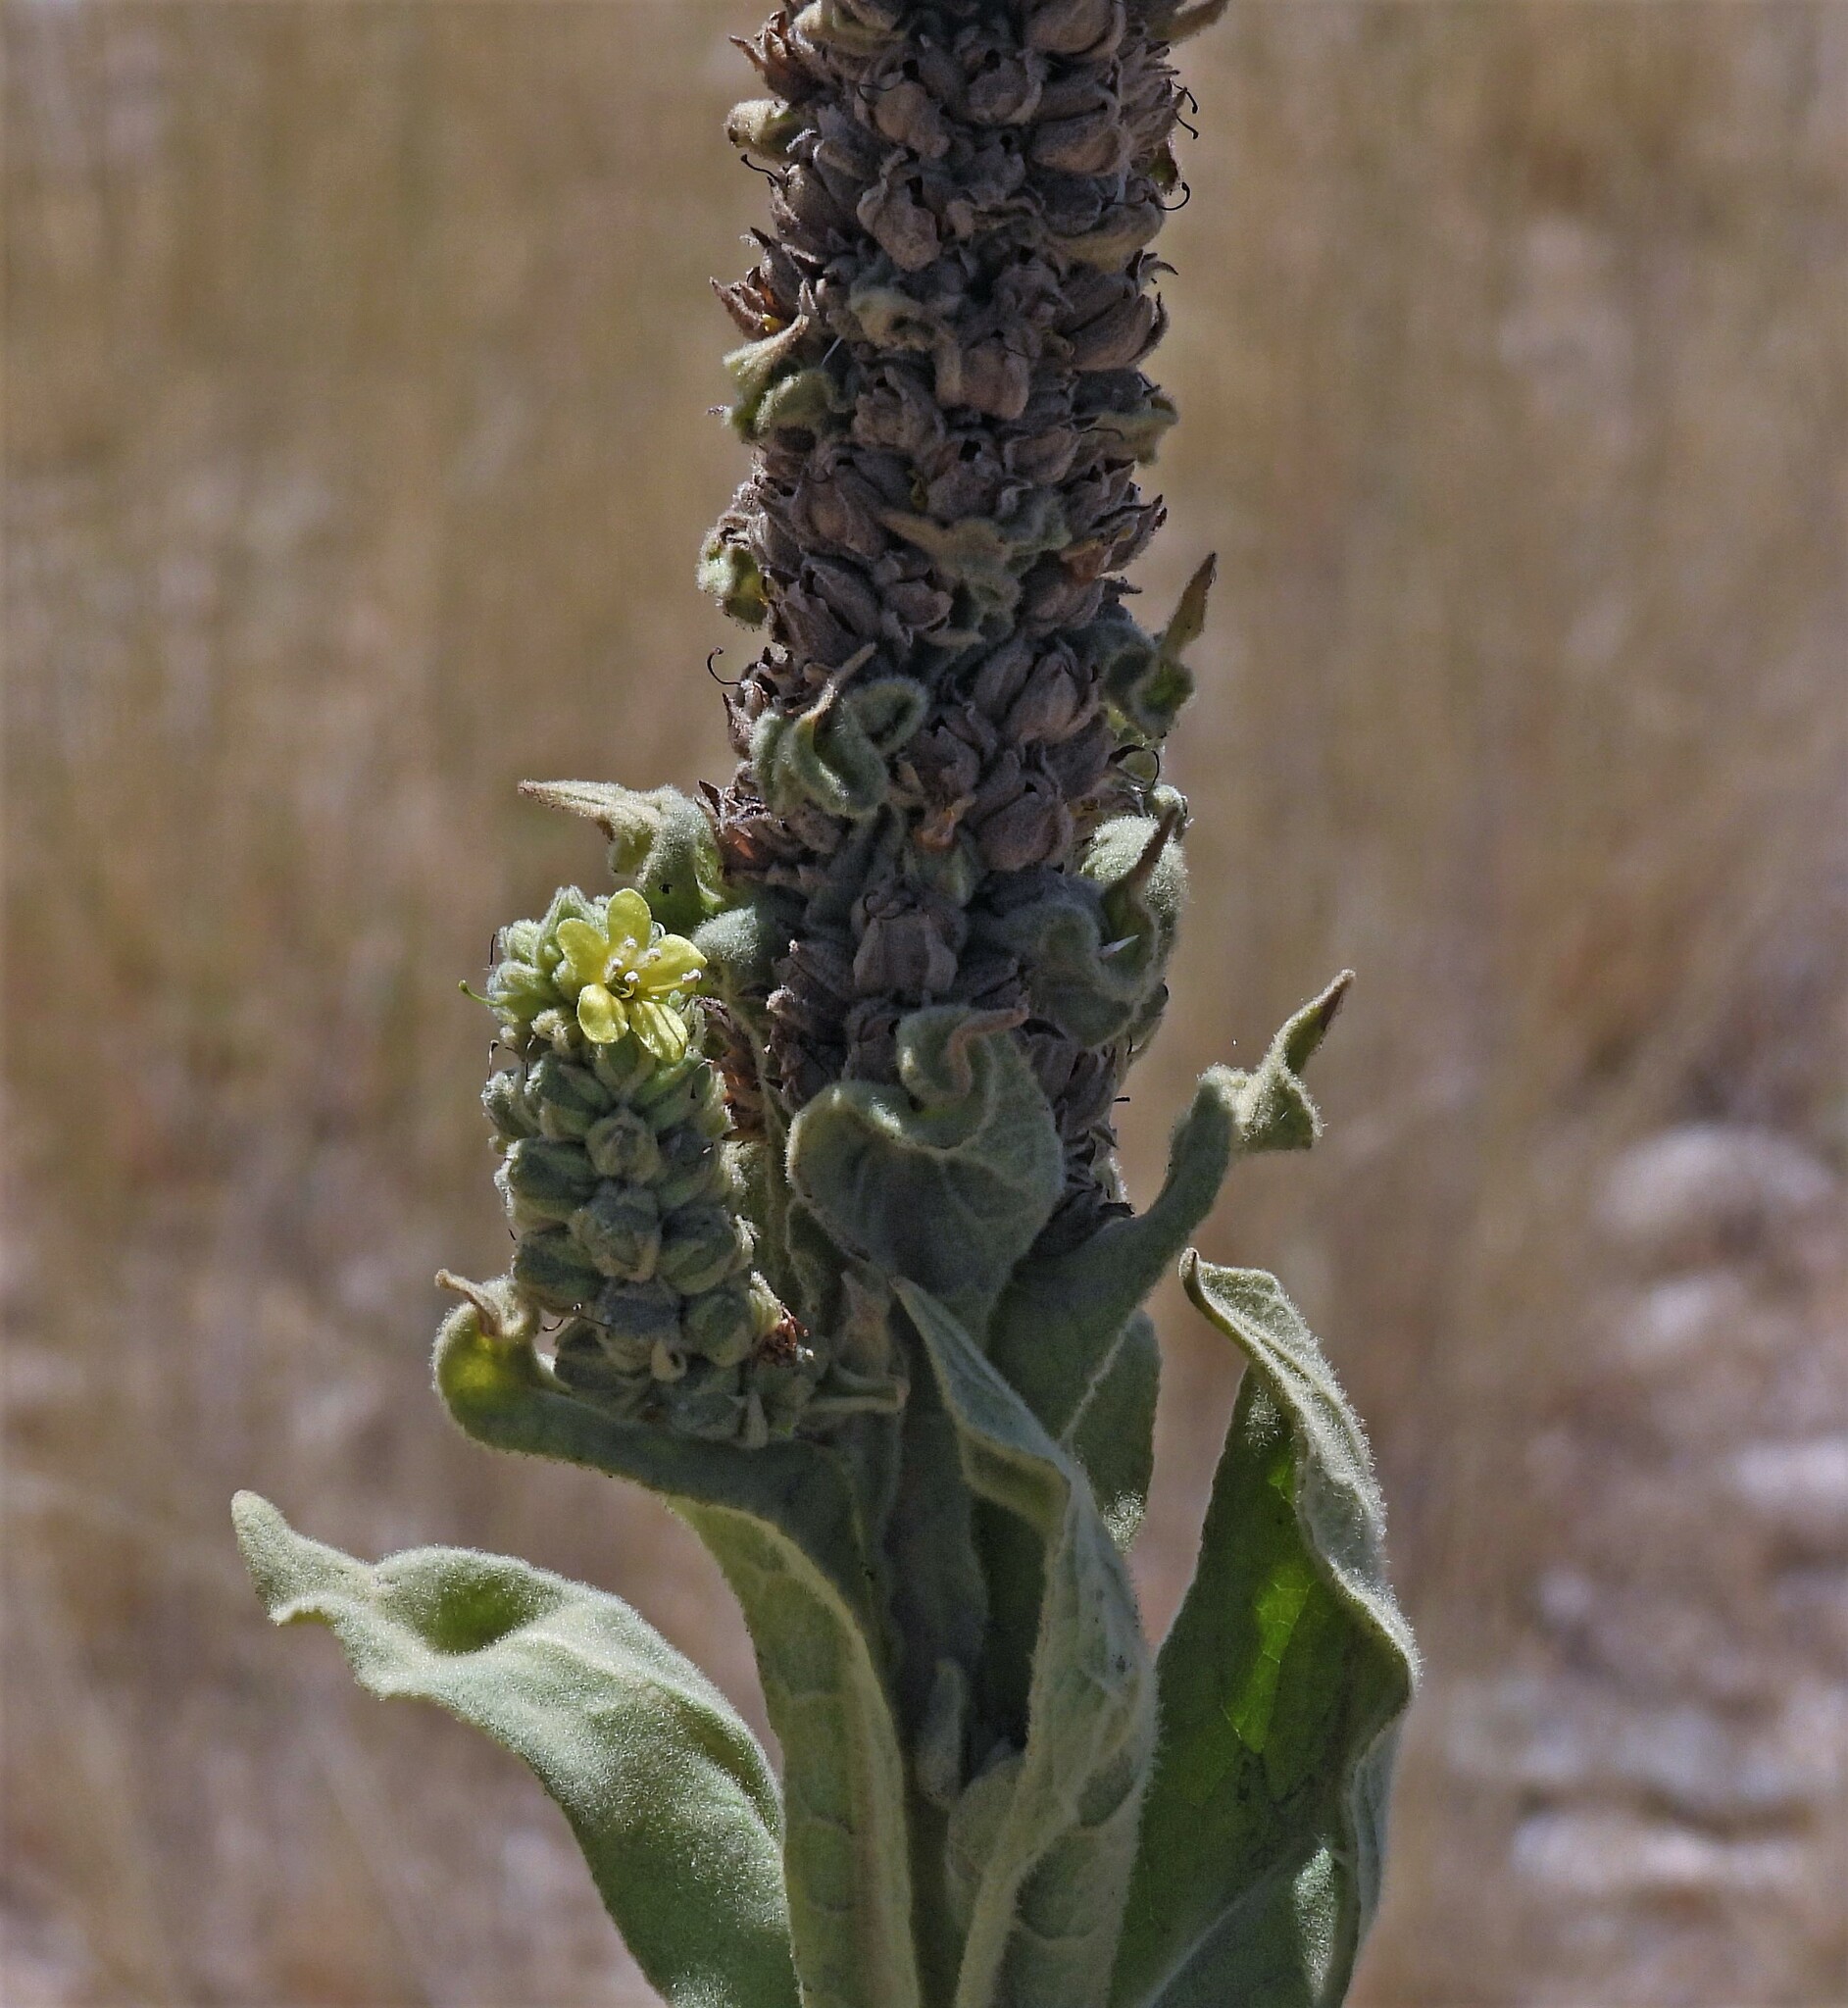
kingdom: Plantae
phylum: Tracheophyta
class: Magnoliopsida
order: Lamiales
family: Scrophulariaceae
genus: Verbascum
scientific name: Verbascum thapsus
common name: Common mullein
